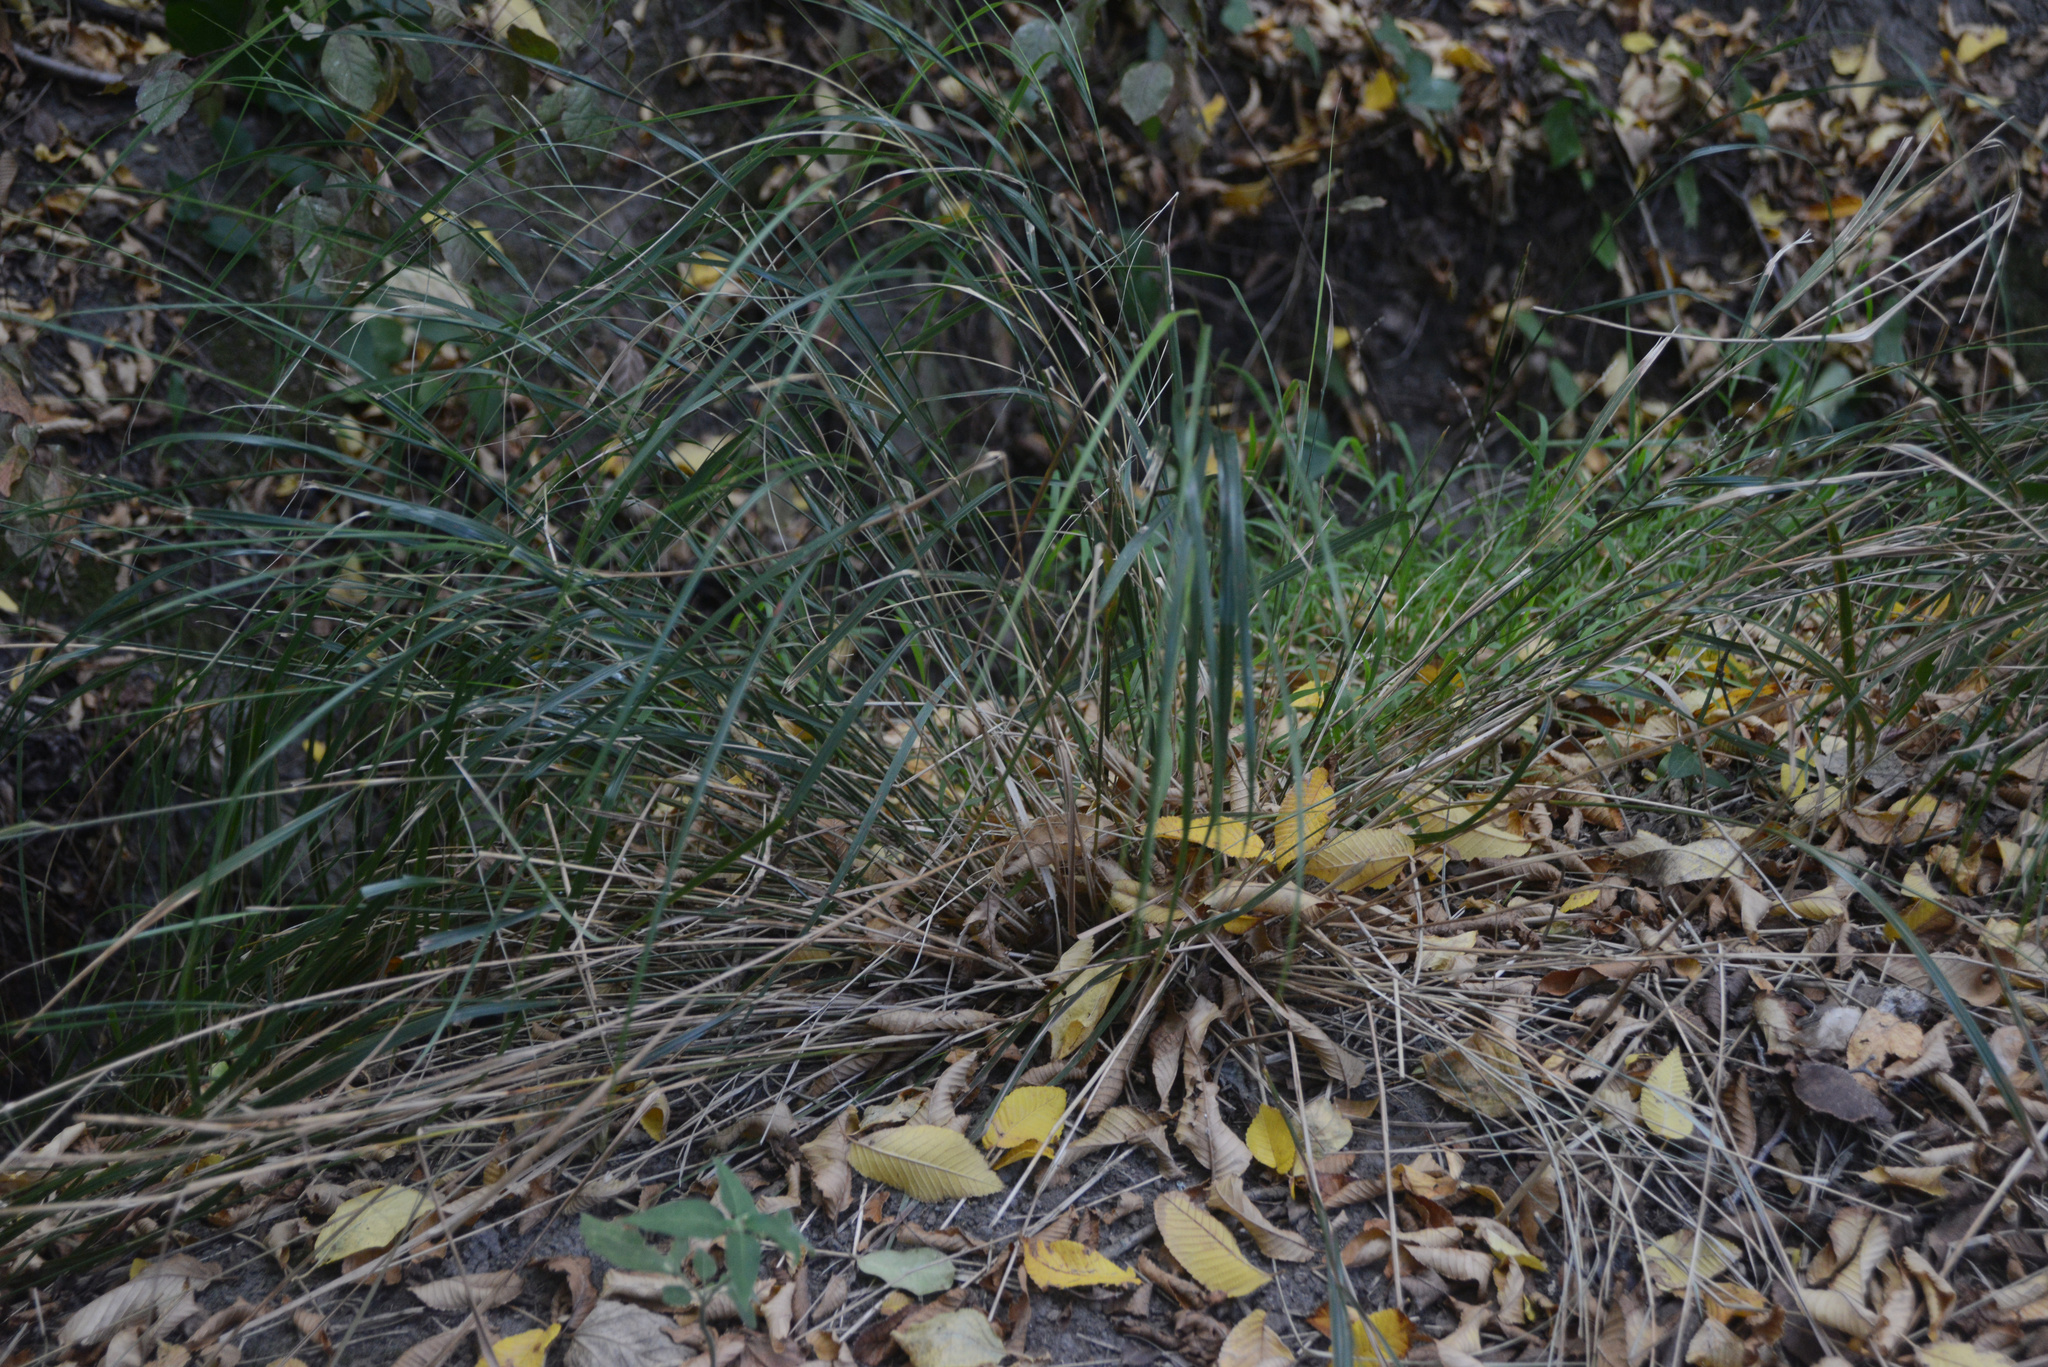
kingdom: Plantae
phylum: Tracheophyta
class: Liliopsida
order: Poales
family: Poaceae
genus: Anemanthele
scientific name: Anemanthele lessoniana
